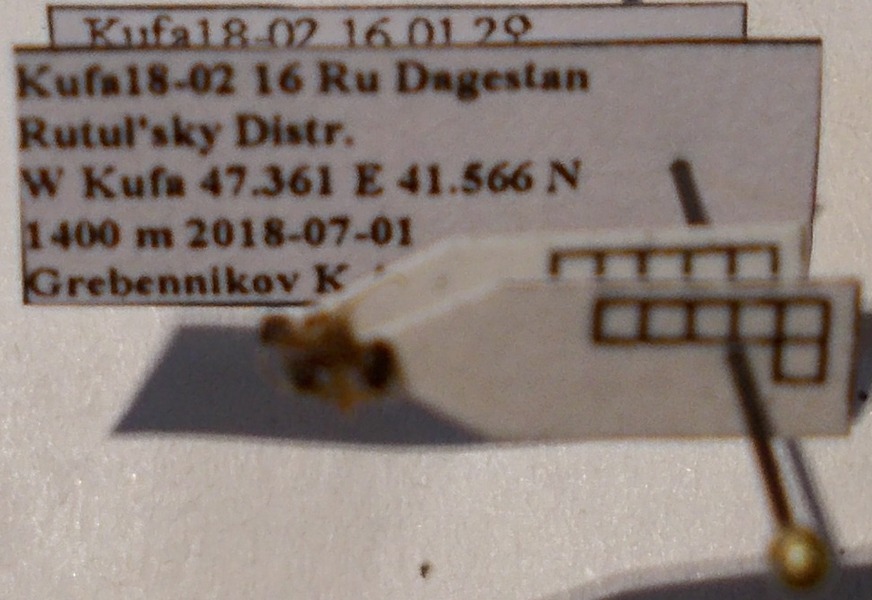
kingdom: Animalia
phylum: Arthropoda
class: Insecta
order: Hymenoptera
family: Formicidae
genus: Lasius
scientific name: Lasius niger
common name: Small black ant
